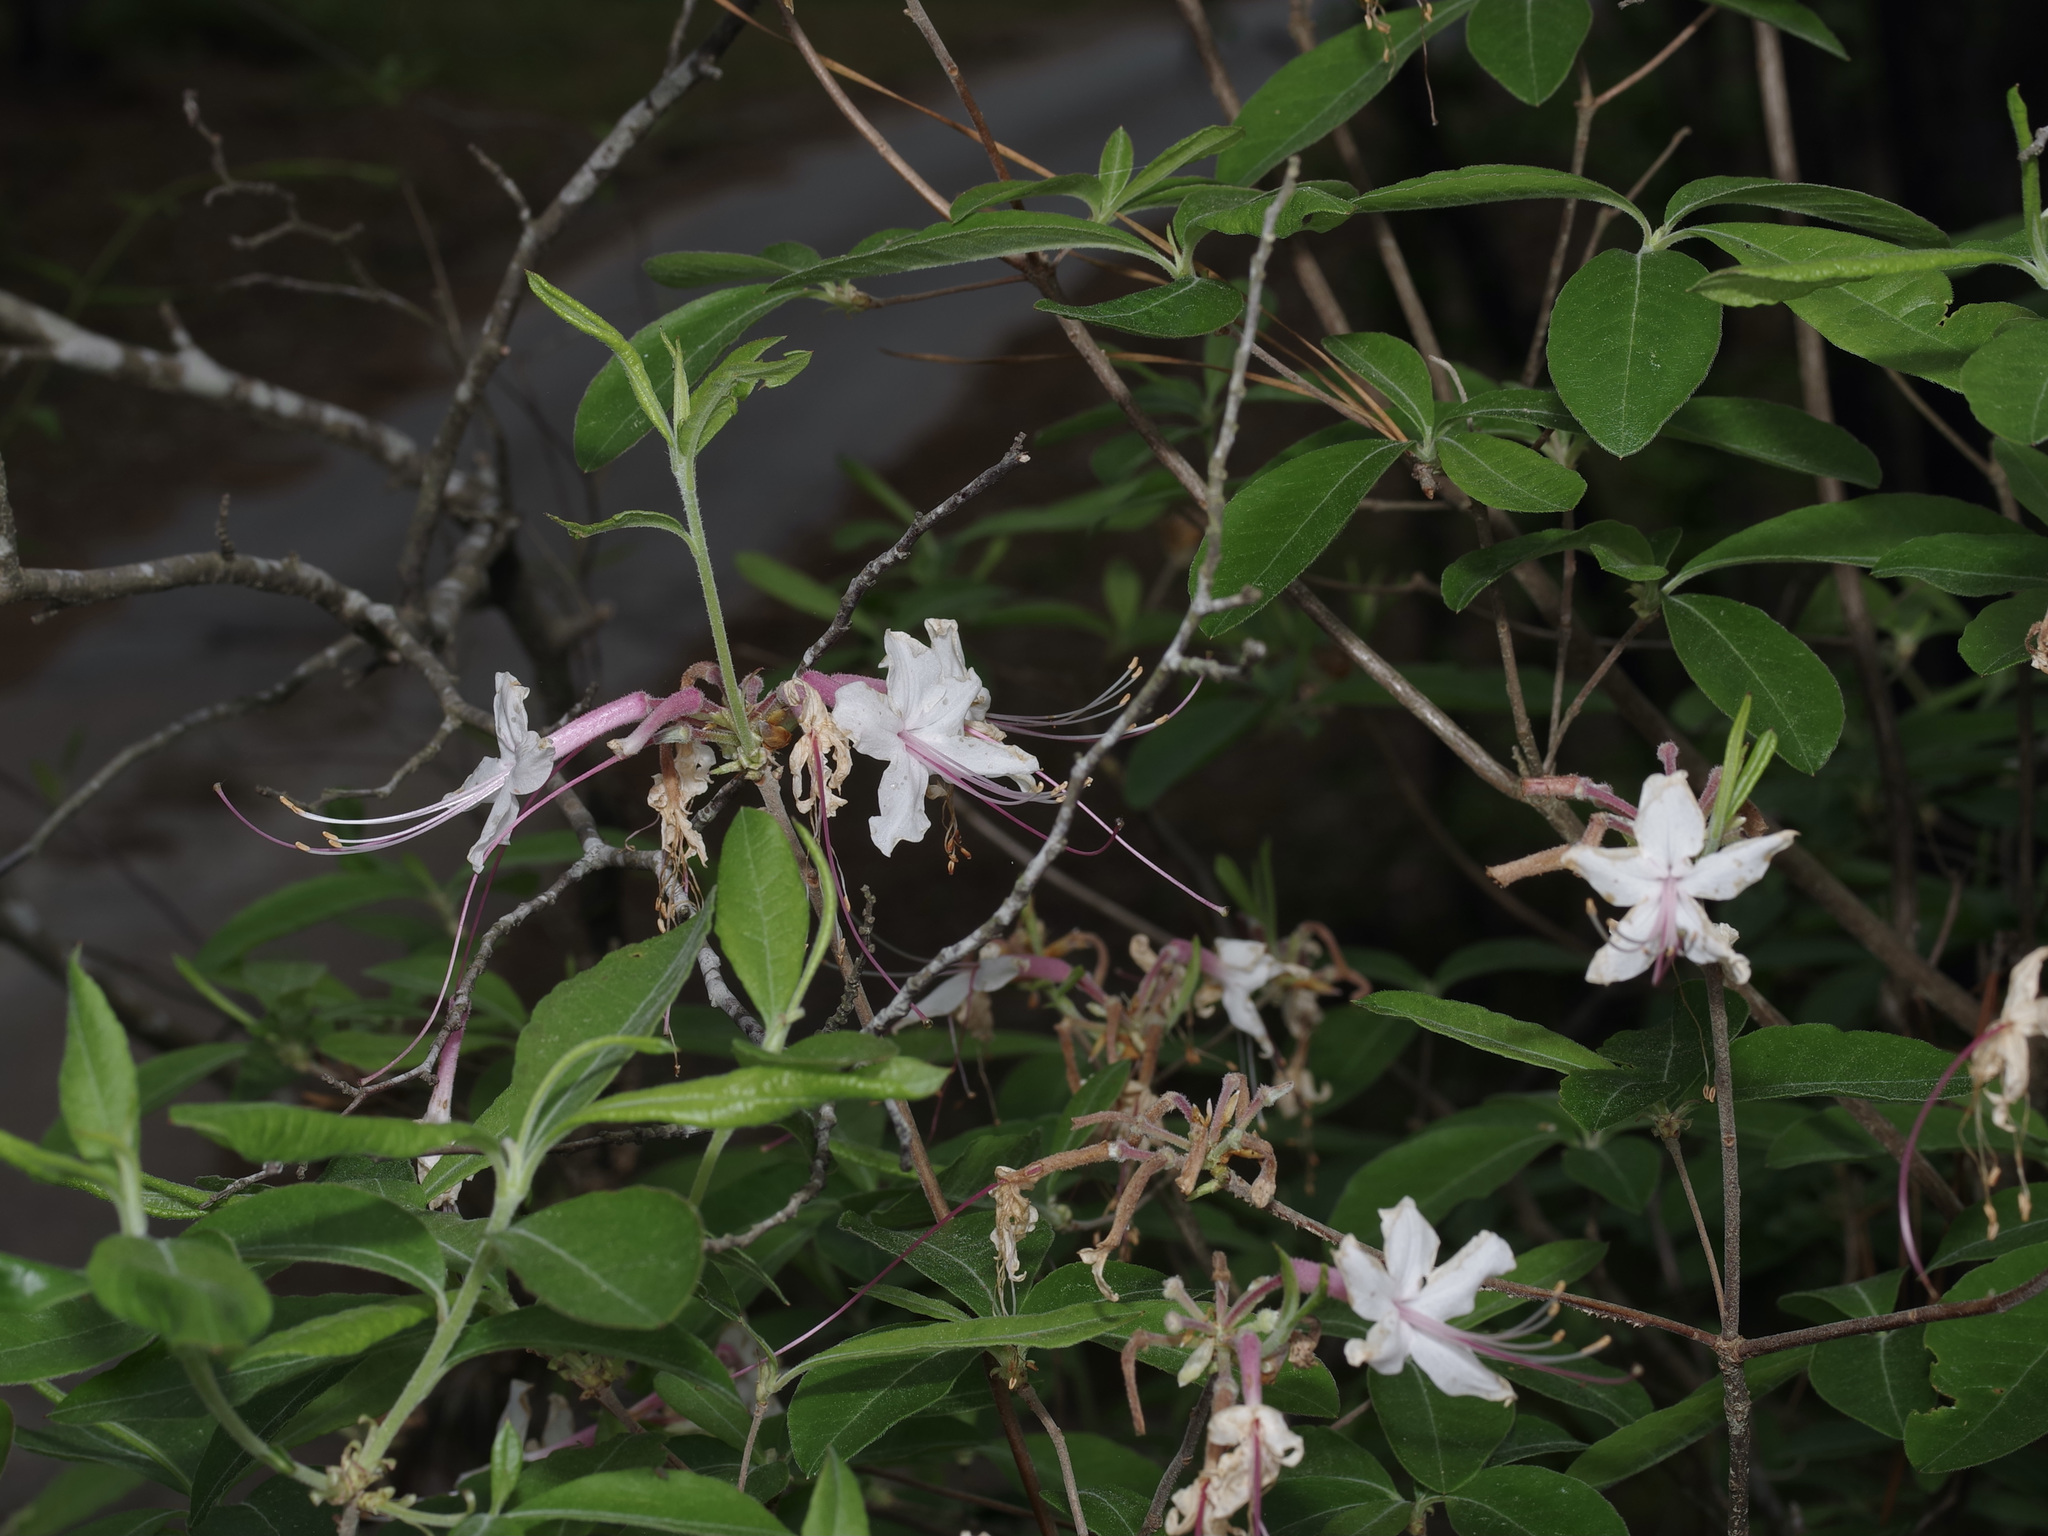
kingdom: Plantae
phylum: Tracheophyta
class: Magnoliopsida
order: Ericales
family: Ericaceae
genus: Rhododendron
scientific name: Rhododendron canescens
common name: Mountain azalea
